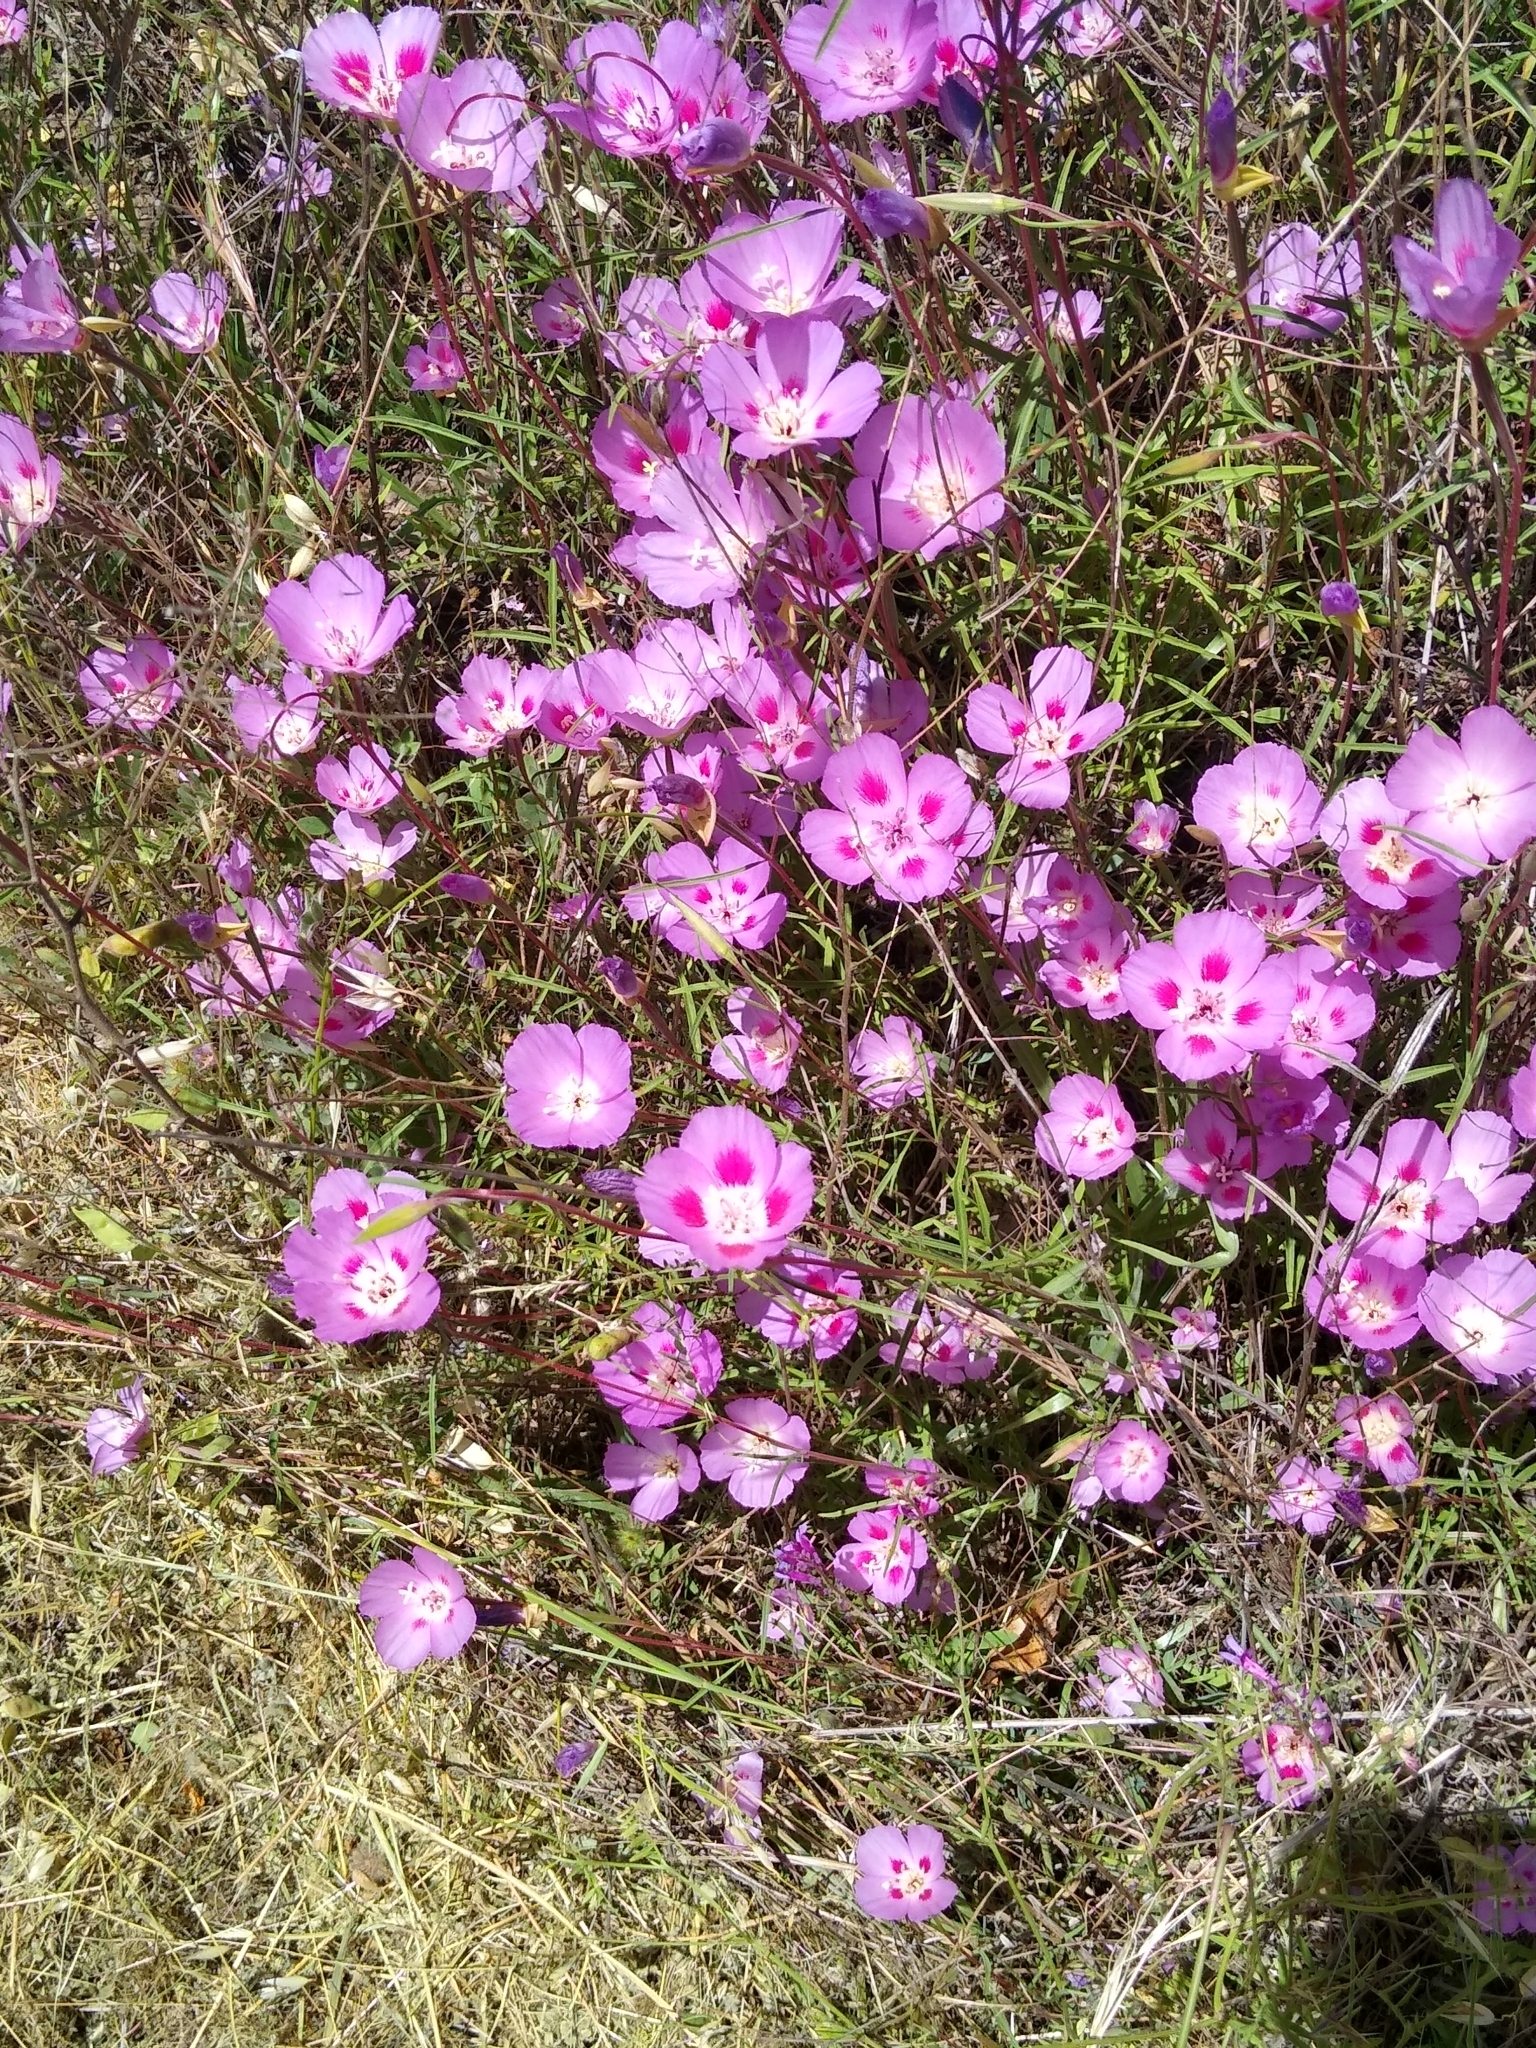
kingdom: Plantae
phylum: Tracheophyta
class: Magnoliopsida
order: Myrtales
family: Onagraceae
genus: Clarkia
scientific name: Clarkia amoena
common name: Godetia
